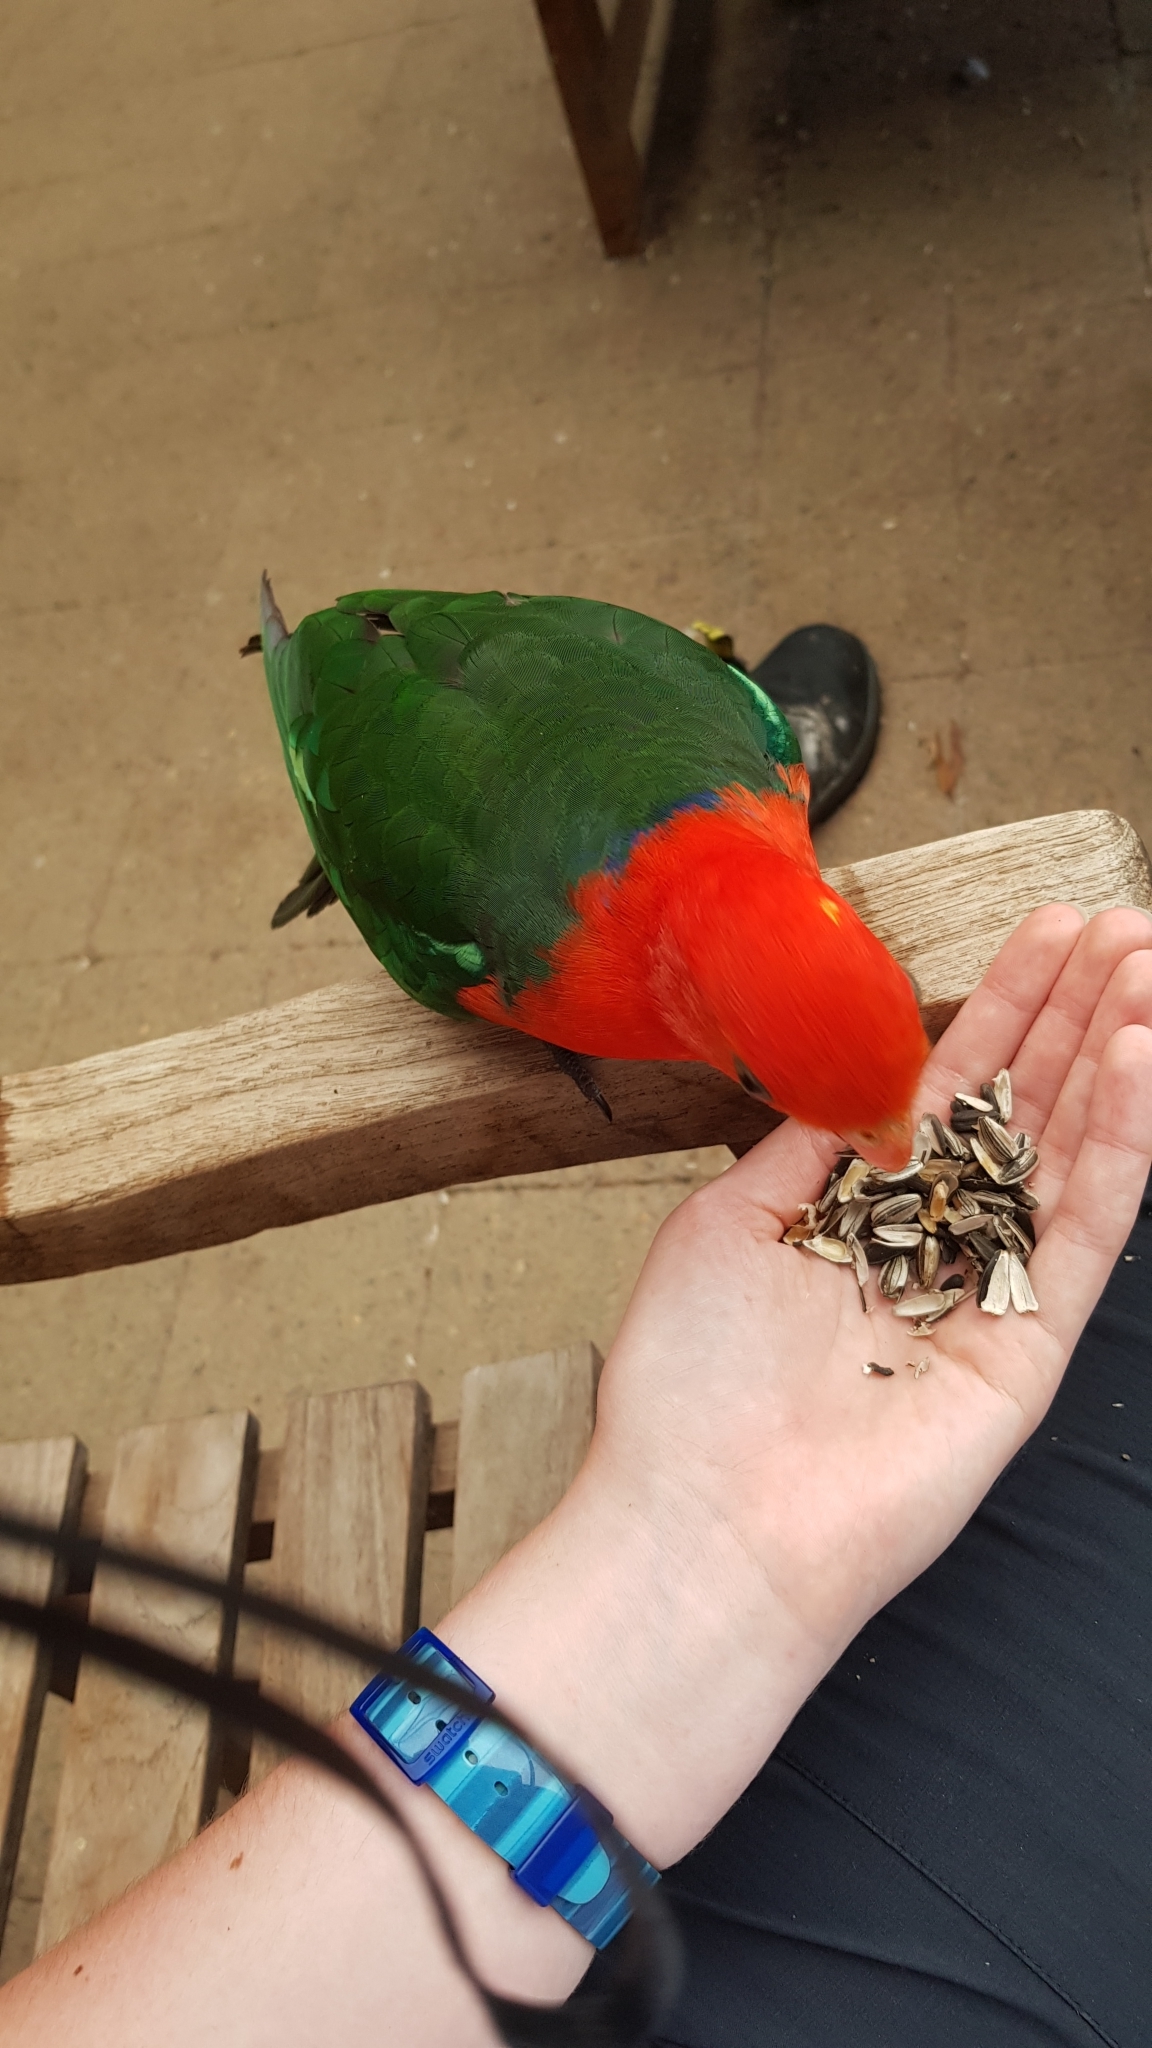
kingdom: Animalia
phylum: Chordata
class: Aves
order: Psittaciformes
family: Psittacidae
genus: Alisterus
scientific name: Alisterus scapularis
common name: Australian king parrot
